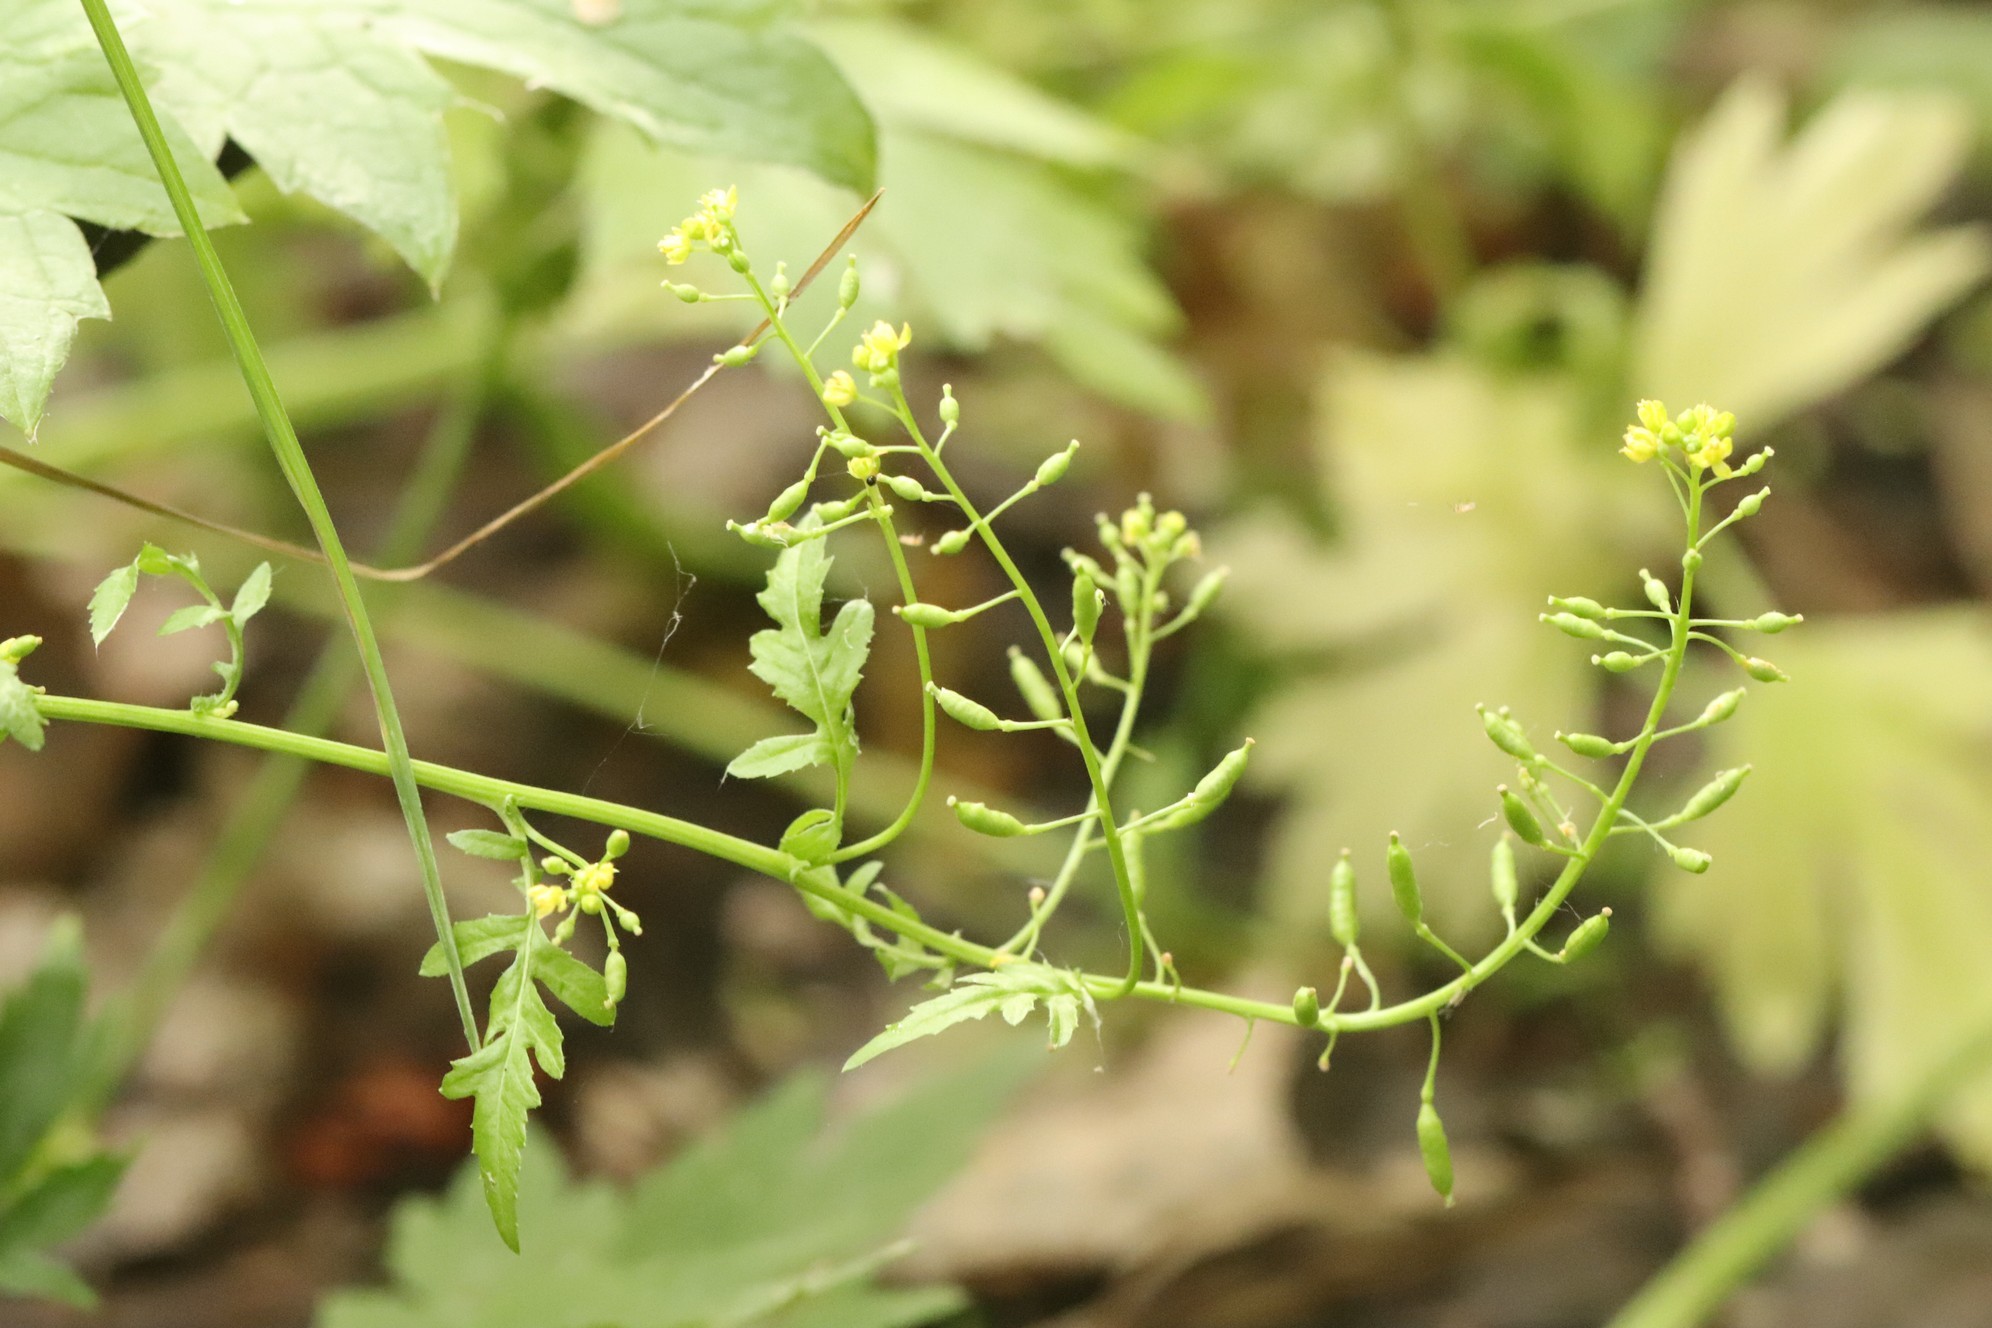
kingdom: Plantae
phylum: Tracheophyta
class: Magnoliopsida
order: Brassicales
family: Brassicaceae
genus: Rorippa
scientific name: Rorippa palustris
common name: Marsh yellow-cress
